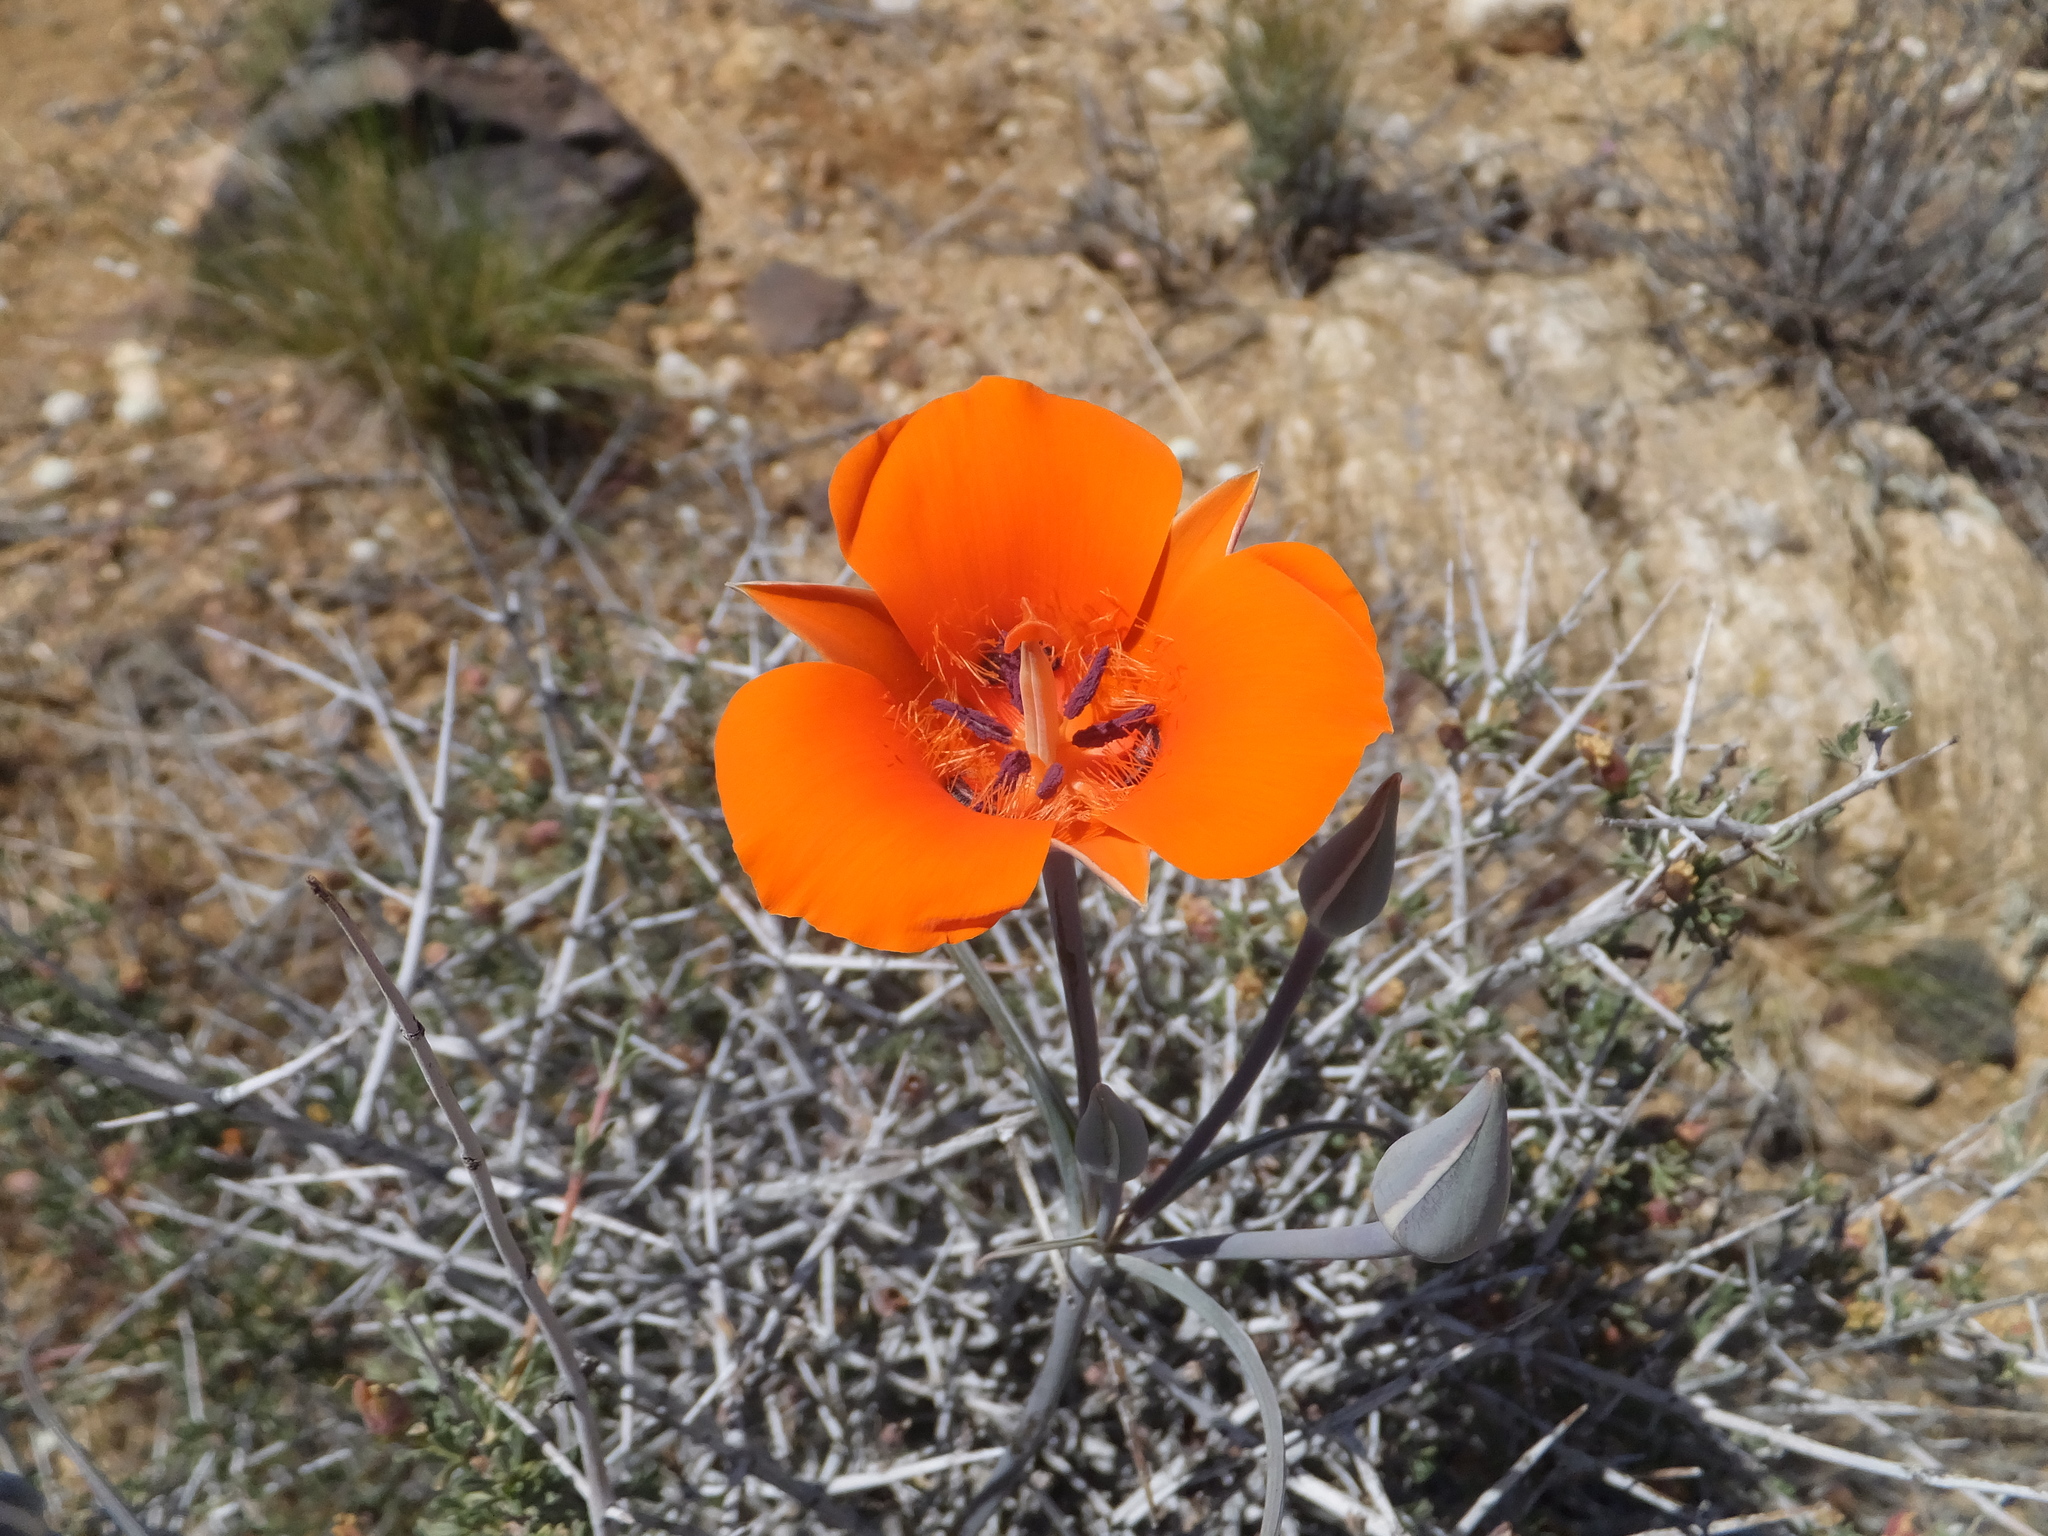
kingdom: Plantae
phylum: Tracheophyta
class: Liliopsida
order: Liliales
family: Liliaceae
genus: Calochortus
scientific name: Calochortus kennedyi
